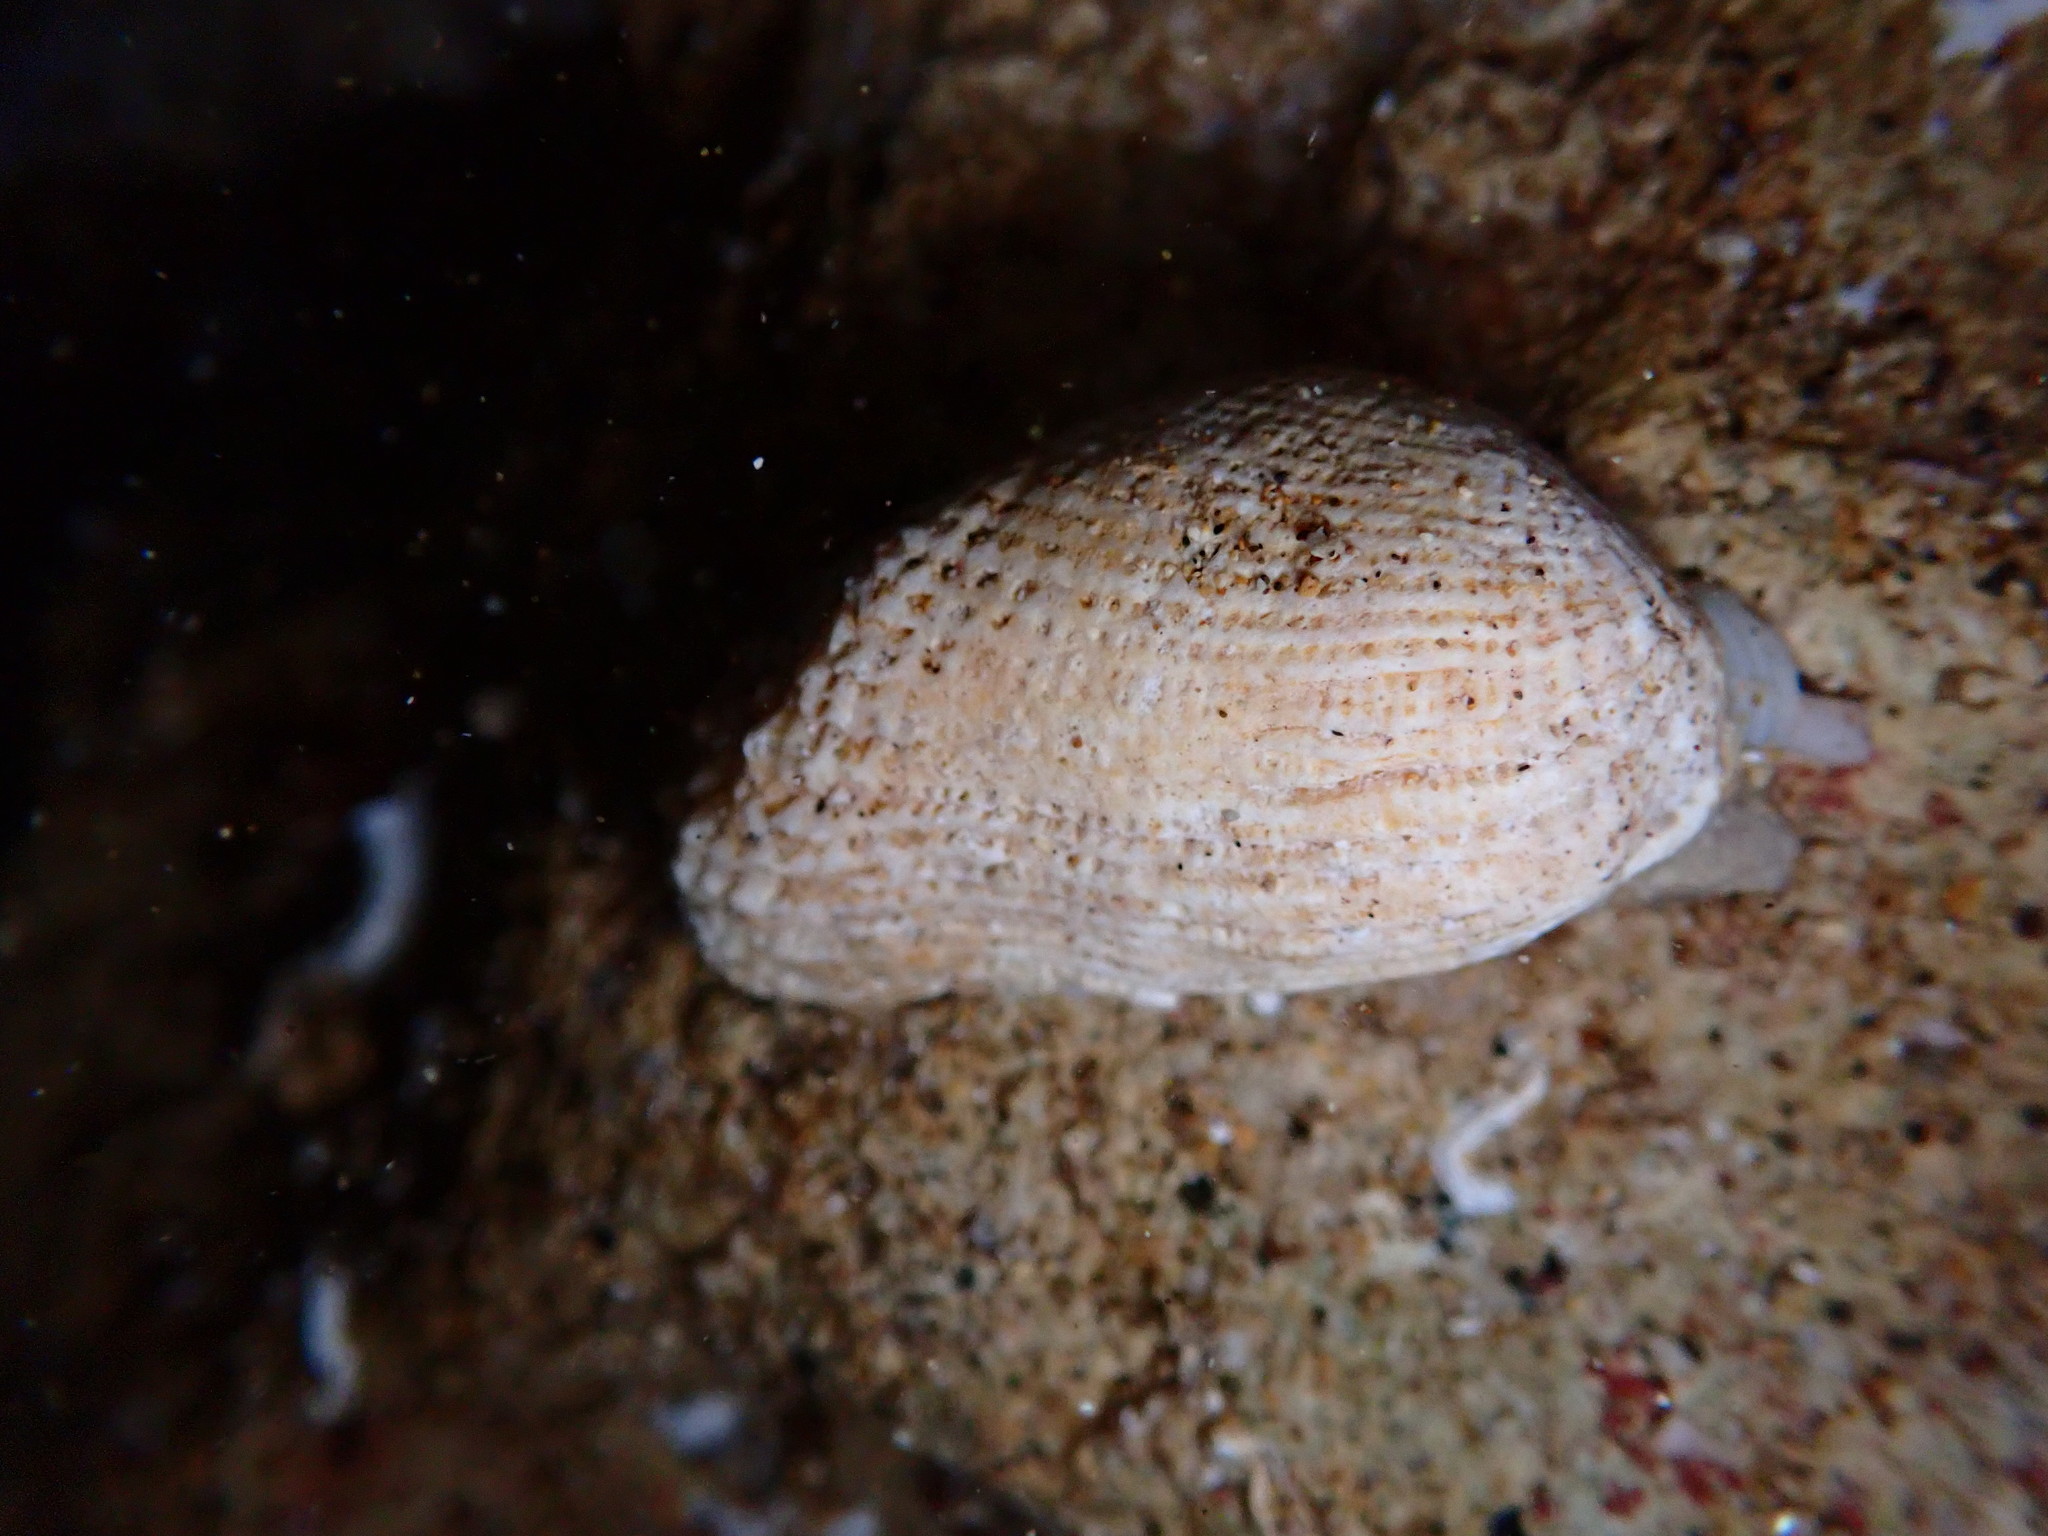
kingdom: Animalia
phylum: Mollusca
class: Bivalvia
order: Arcida
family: Arcidae
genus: Acar
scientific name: Acar plicata
